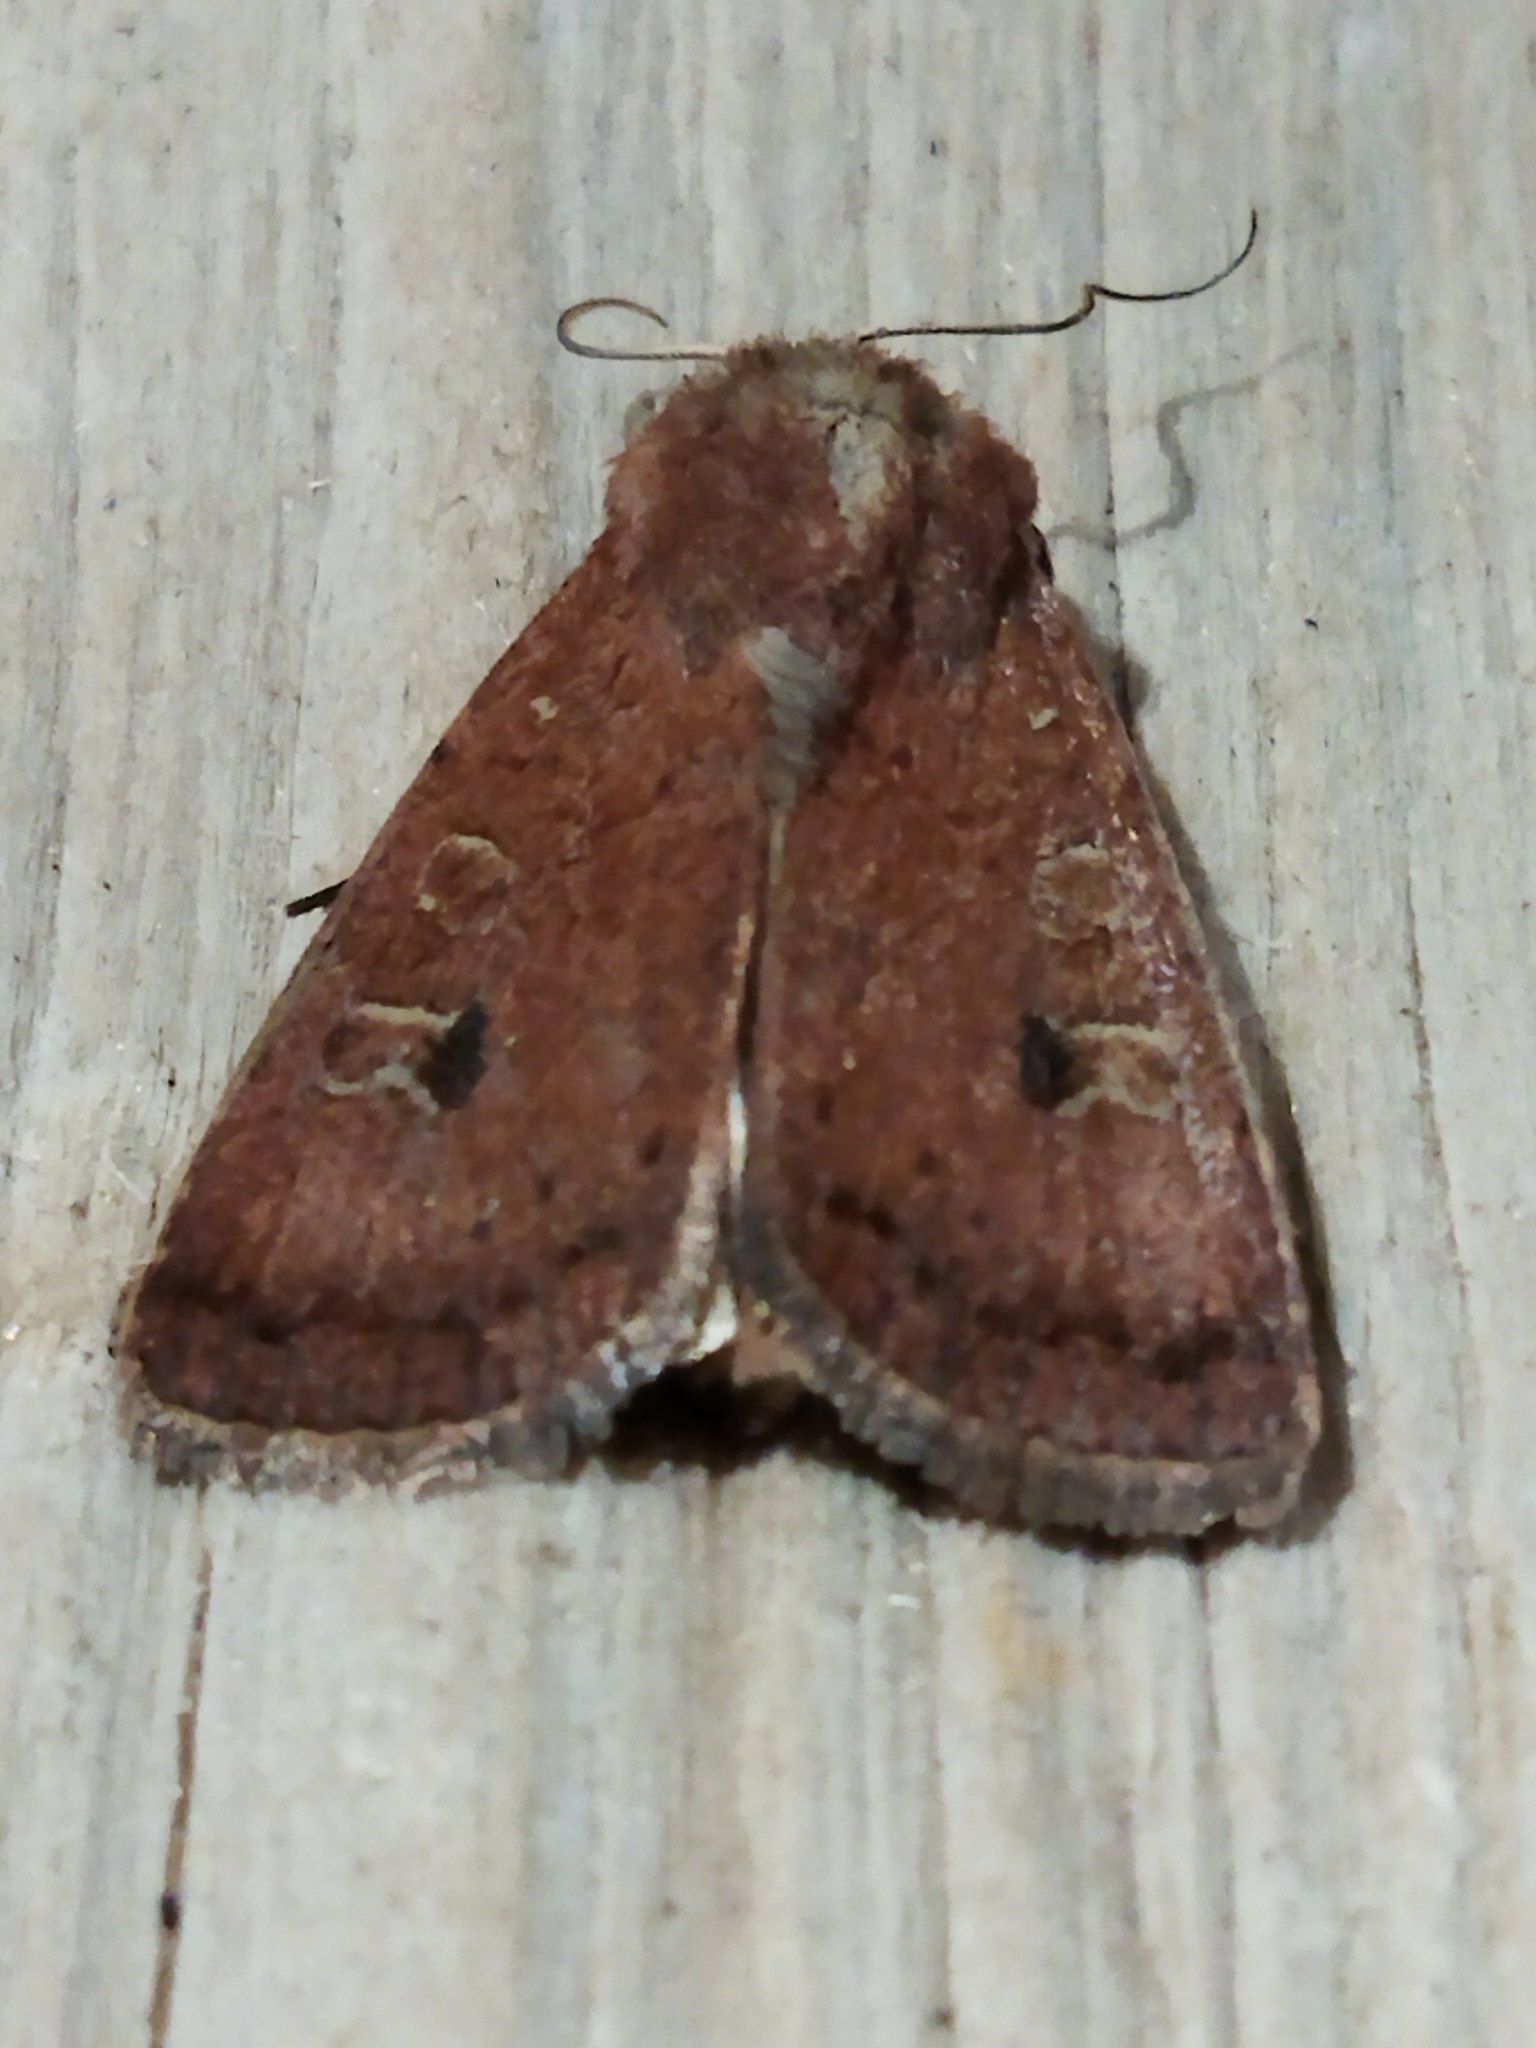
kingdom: Animalia
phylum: Arthropoda
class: Insecta
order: Lepidoptera
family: Noctuidae
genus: Xestia
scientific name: Xestia xanthographa
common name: Square-spot rustic
